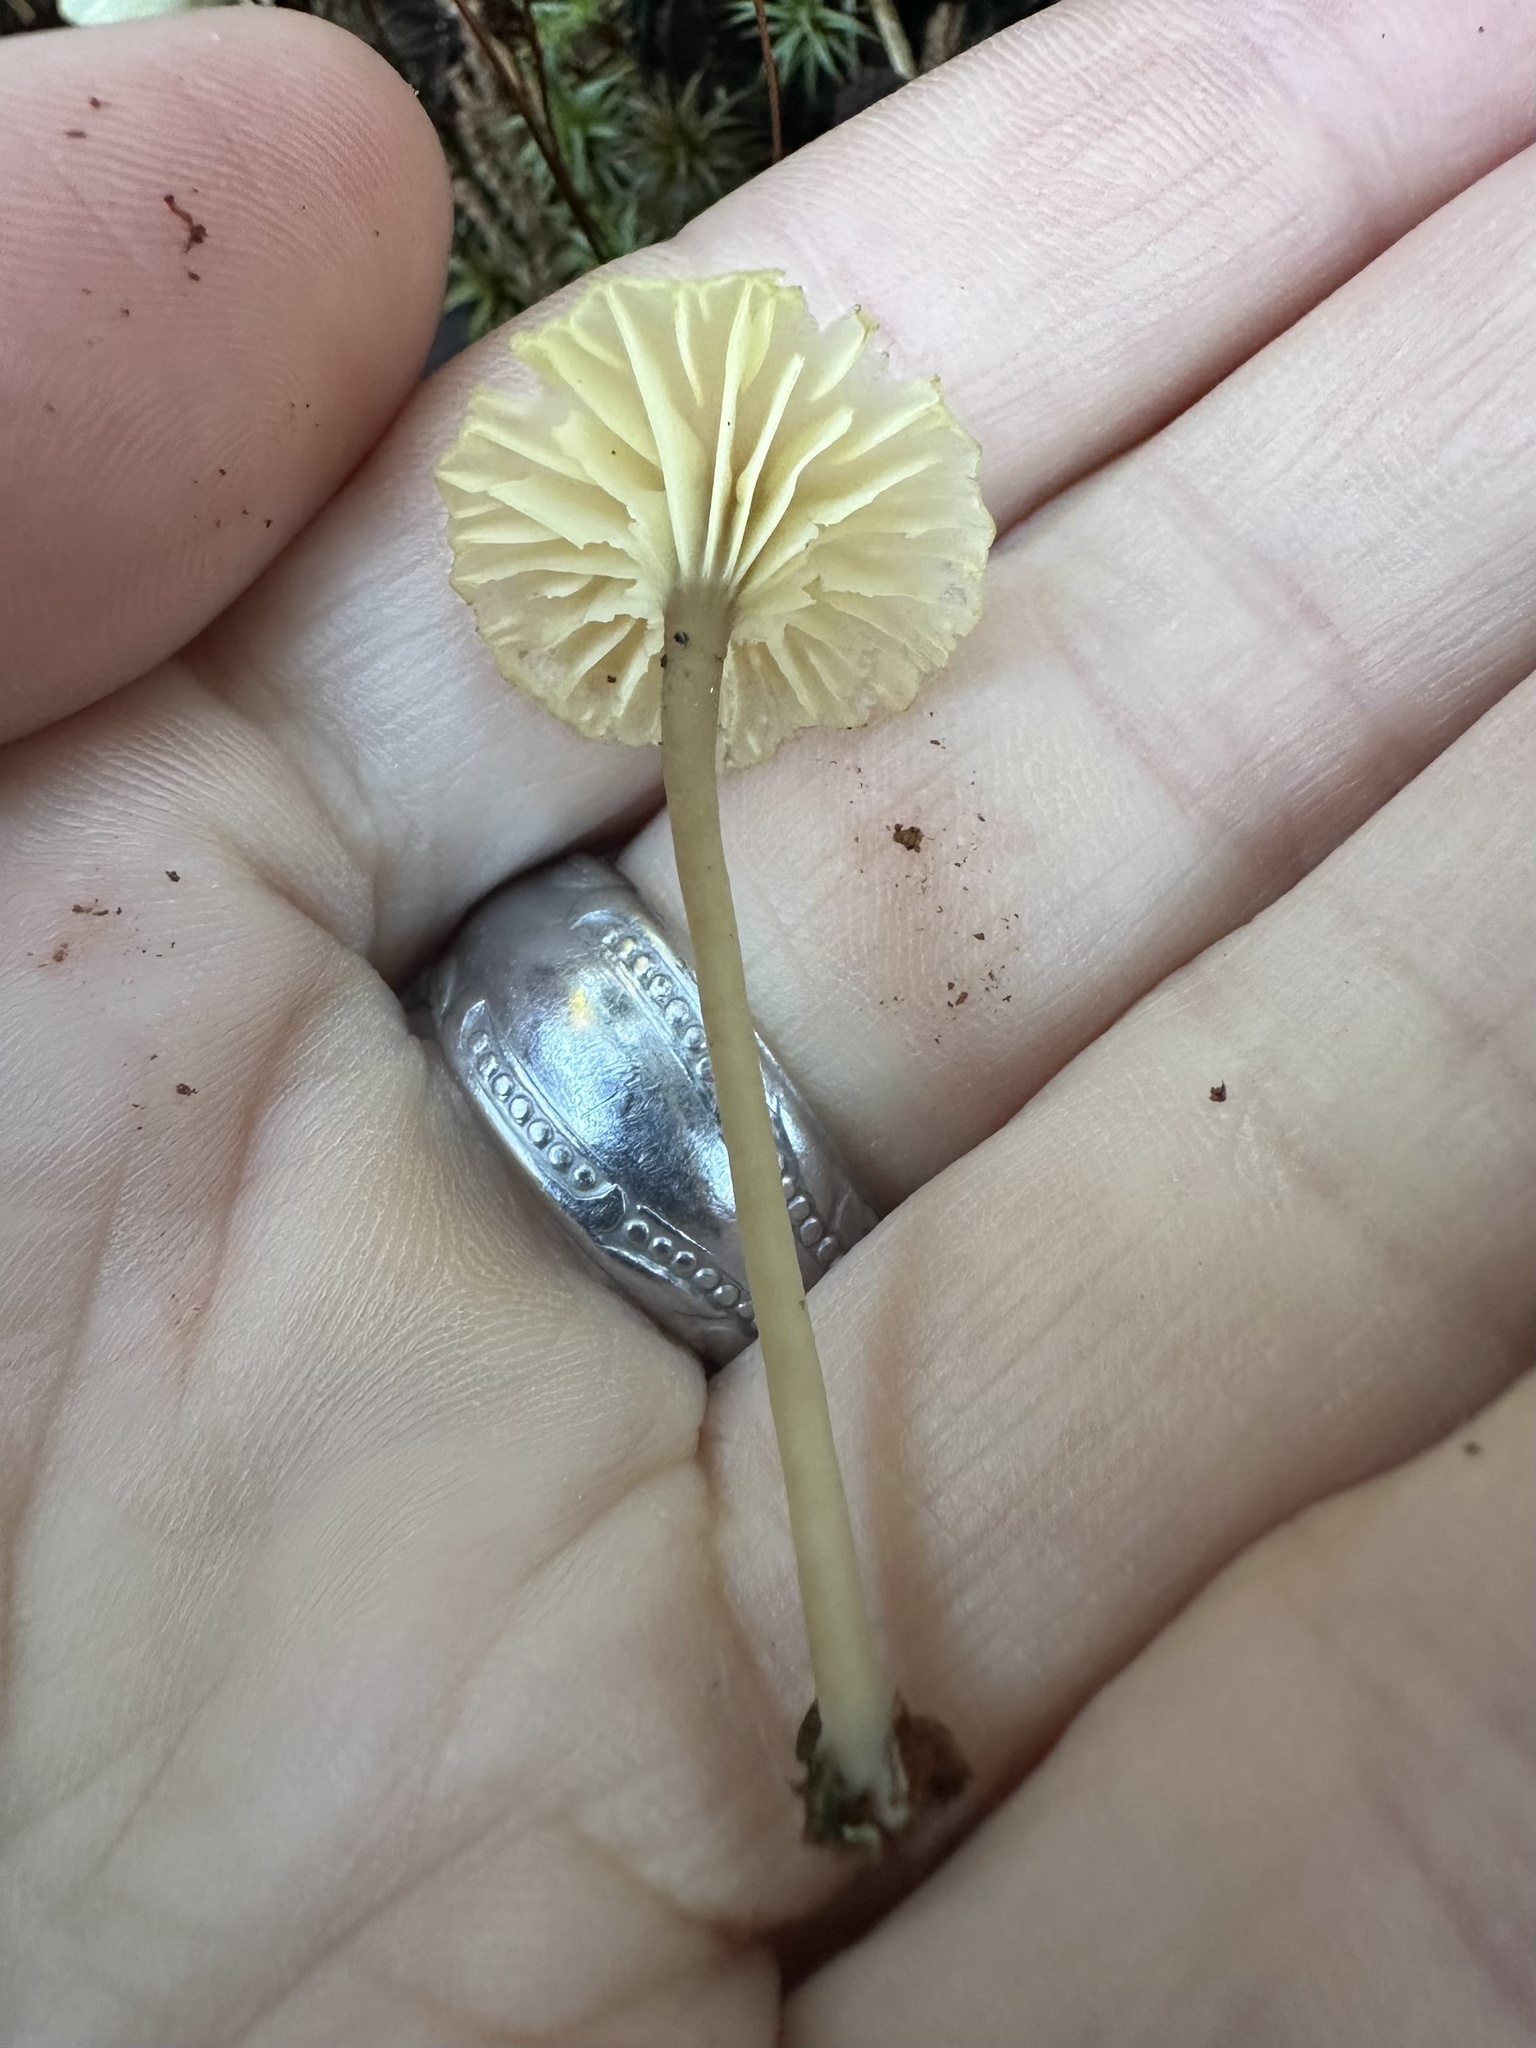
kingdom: Fungi
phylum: Basidiomycota
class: Agaricomycetes
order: Agaricales
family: Hygrophoraceae
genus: Lichenomphalia
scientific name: Lichenomphalia
